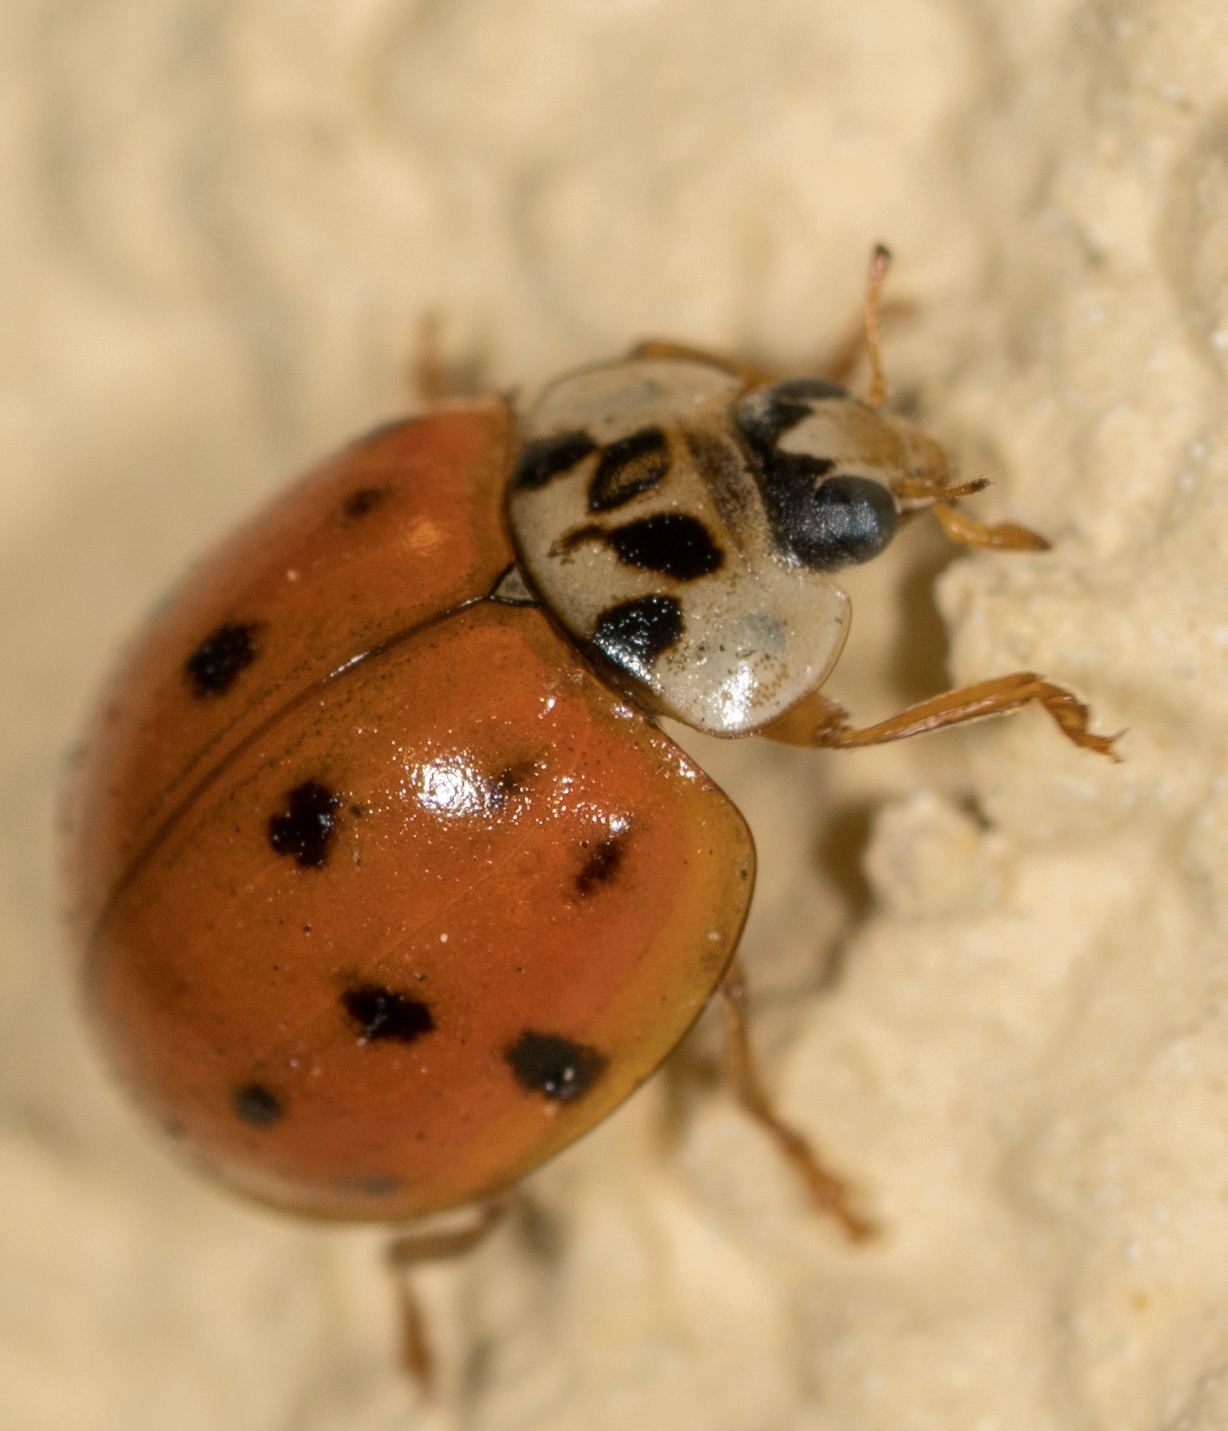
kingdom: Animalia
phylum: Arthropoda
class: Insecta
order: Coleoptera
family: Coccinellidae
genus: Harmonia
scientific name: Harmonia axyridis
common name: Harlequin ladybird
